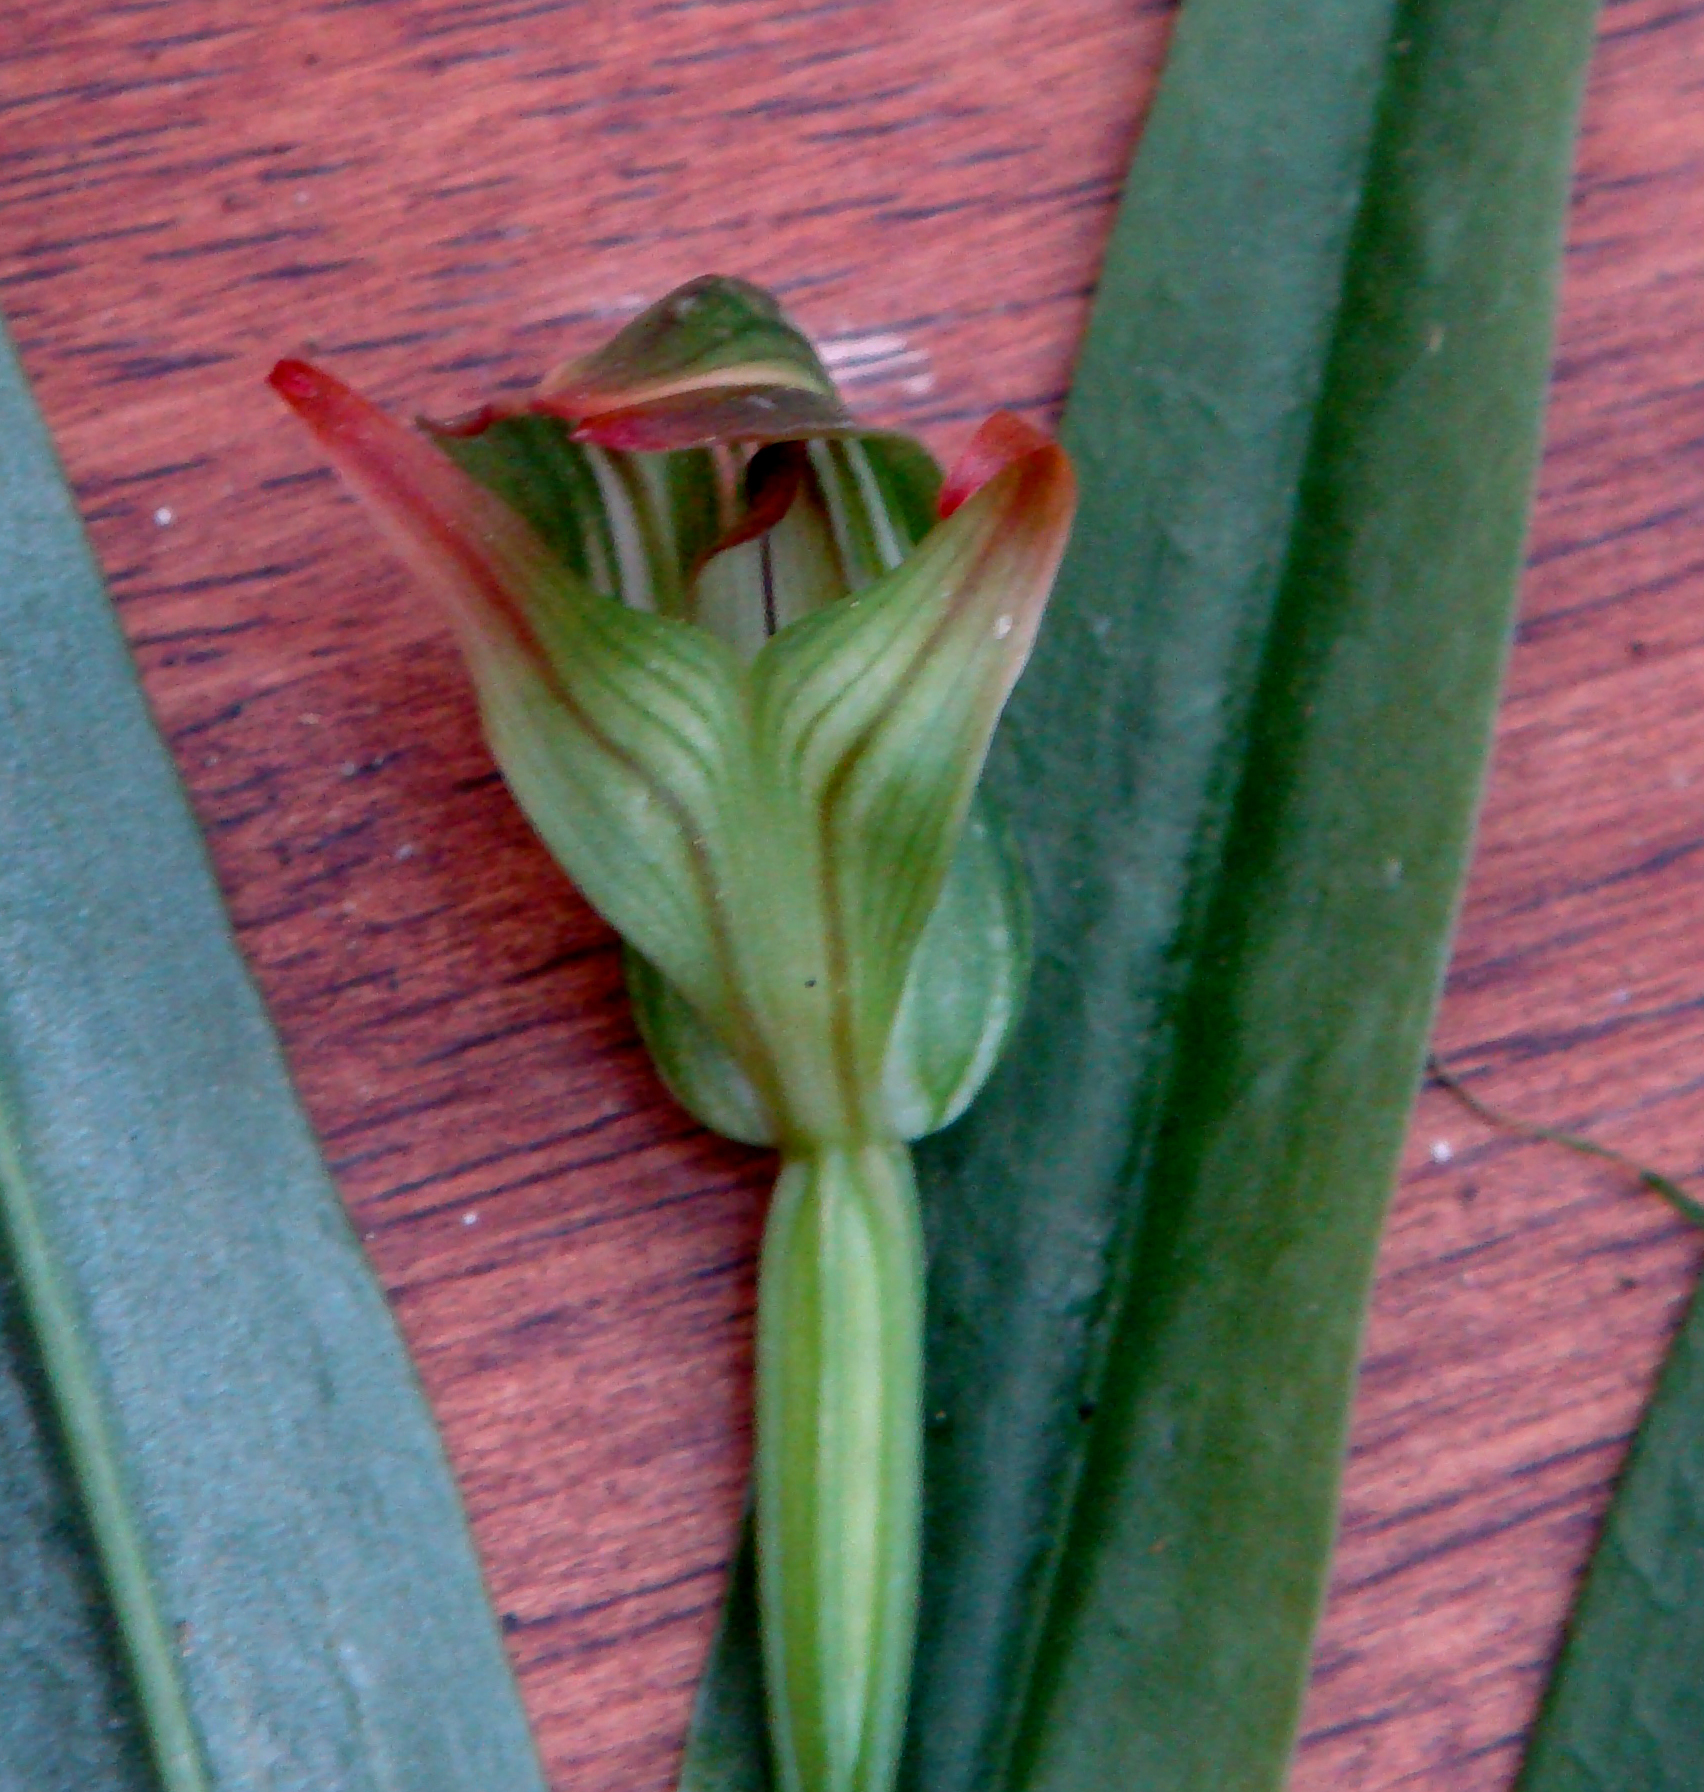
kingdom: Plantae
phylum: Tracheophyta
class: Liliopsida
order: Asparagales
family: Orchidaceae
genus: Pterostylis
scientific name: Pterostylis silvicultrix
